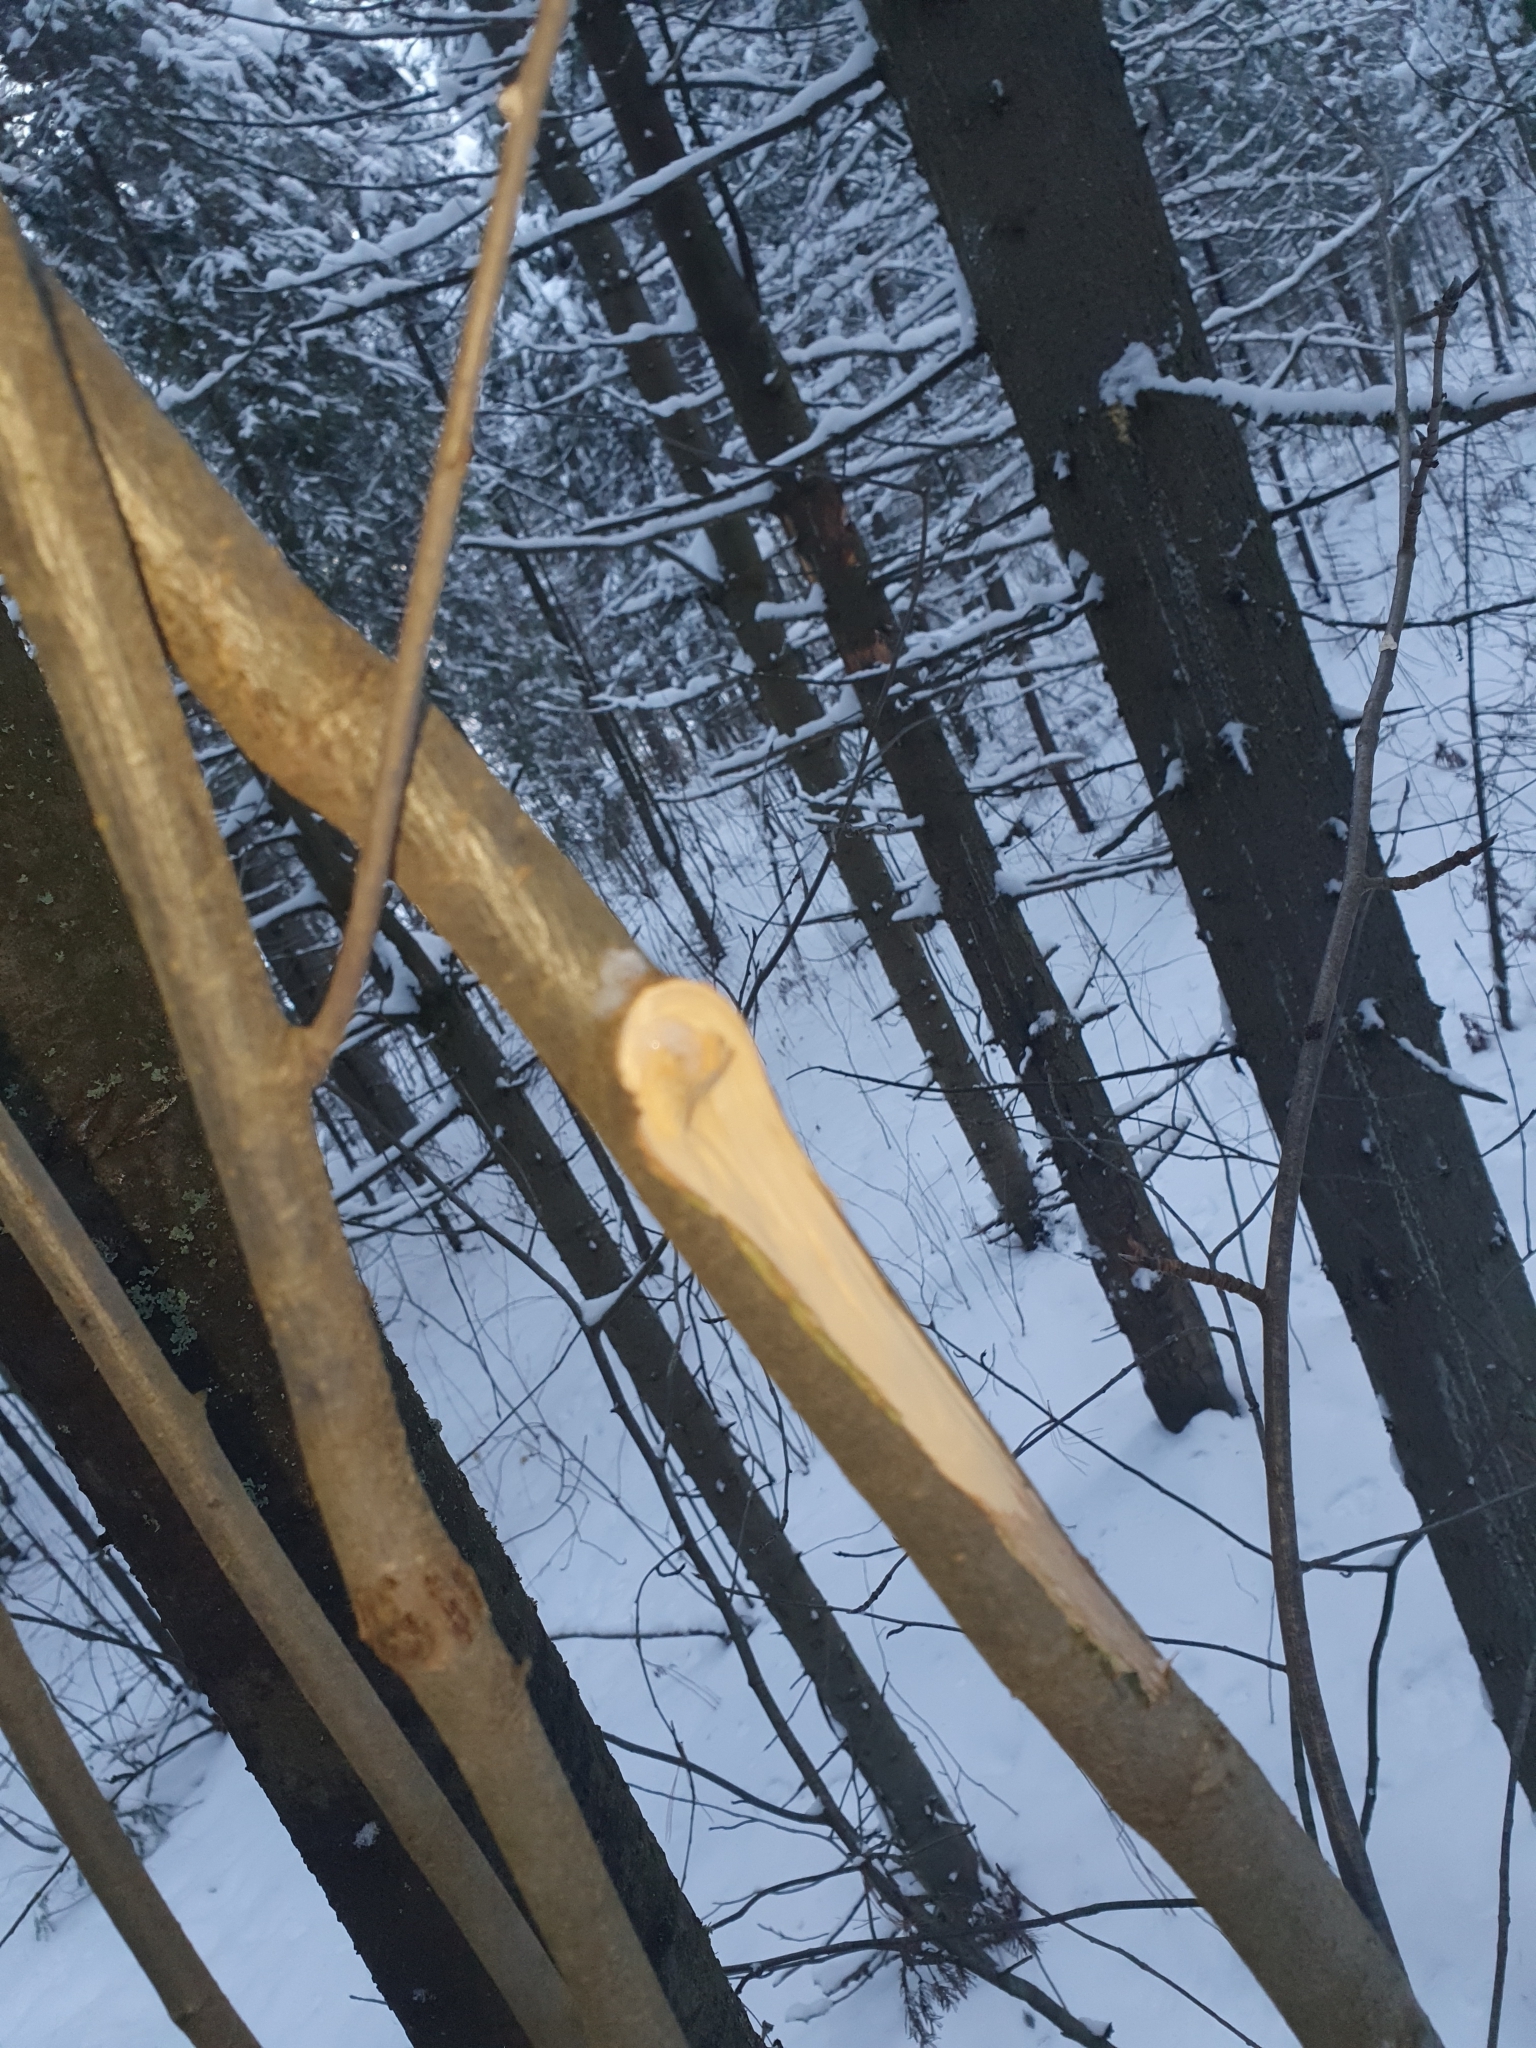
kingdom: Plantae
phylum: Tracheophyta
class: Magnoliopsida
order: Rosales
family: Rosaceae
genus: Sorbus
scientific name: Sorbus aucuparia
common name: Rowan
